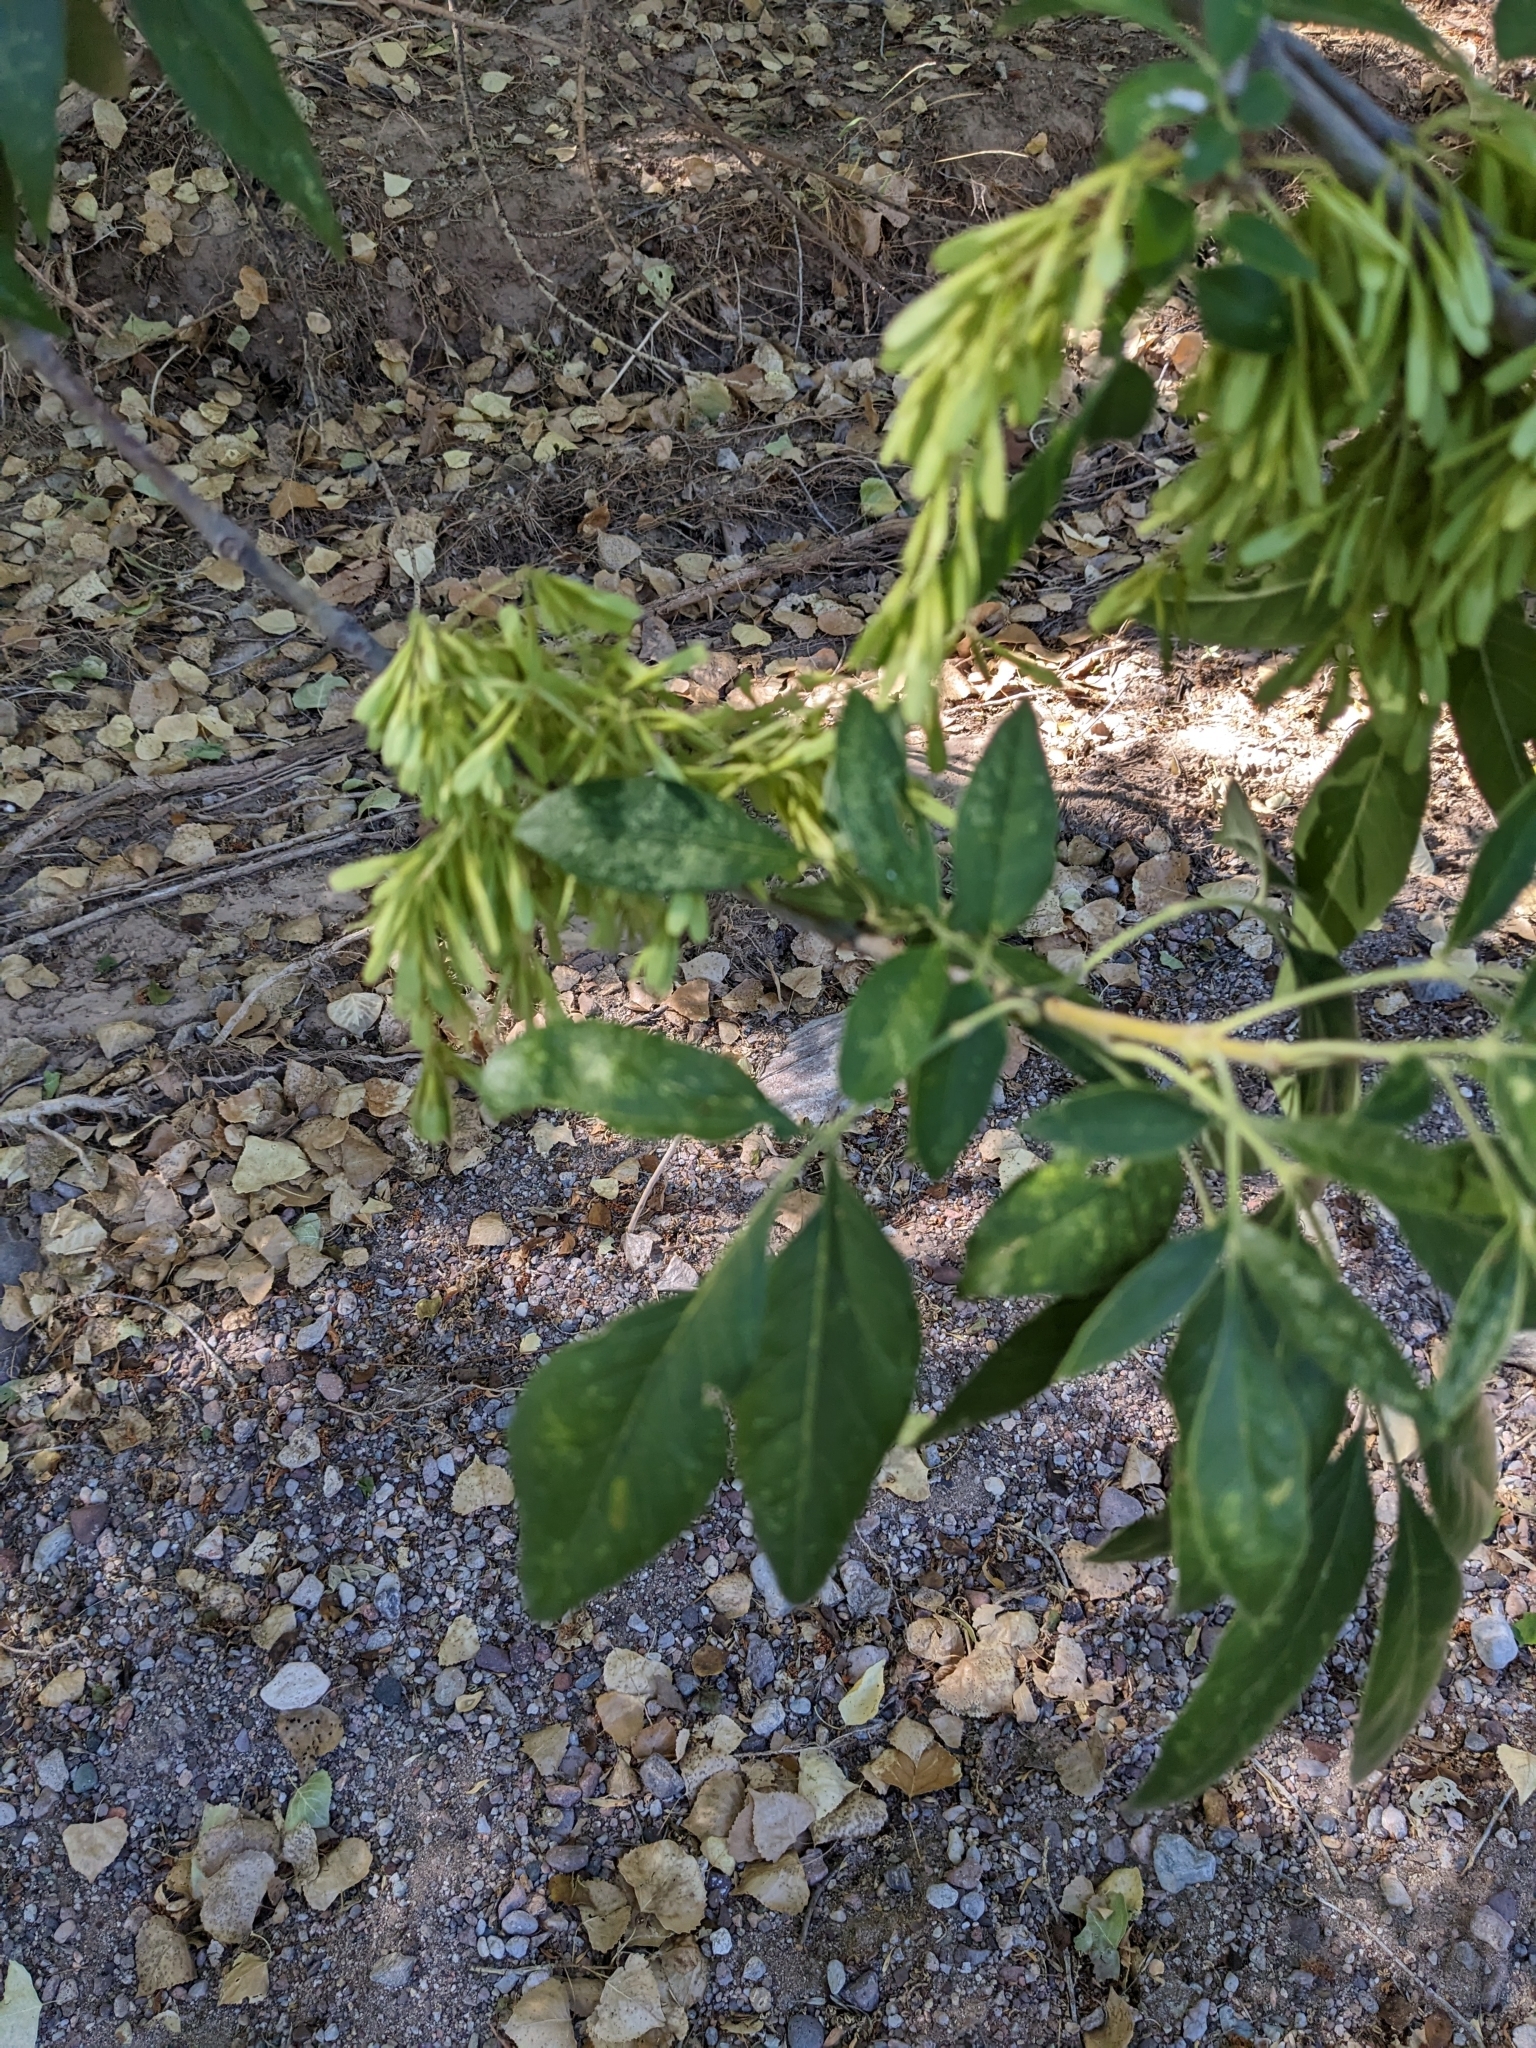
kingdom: Plantae
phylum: Tracheophyta
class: Magnoliopsida
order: Lamiales
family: Oleaceae
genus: Fraxinus
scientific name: Fraxinus velutina
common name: Arizon ash
